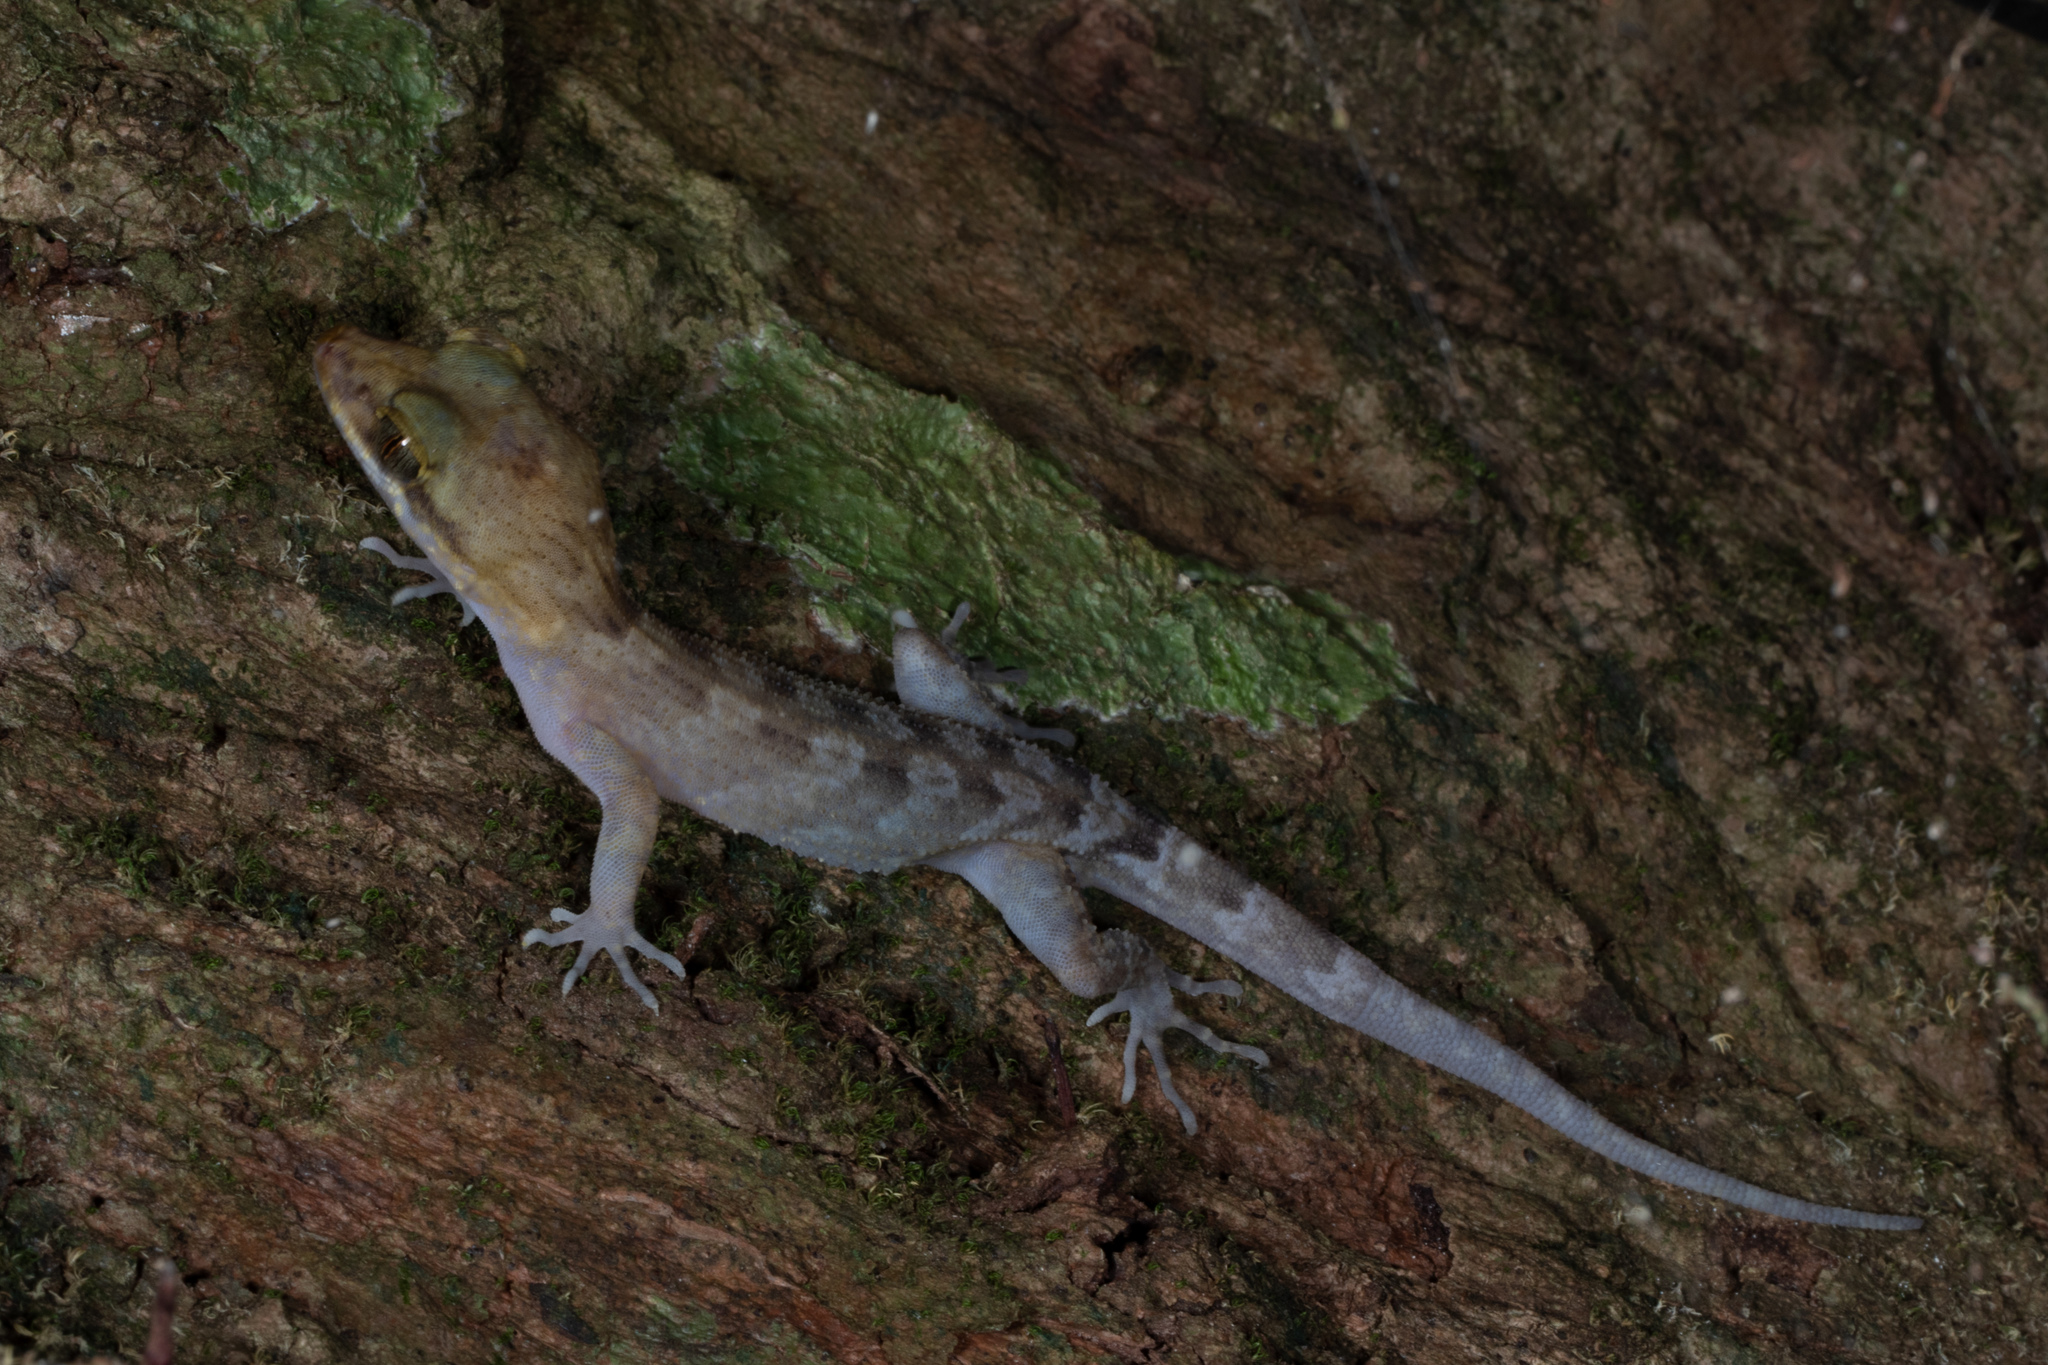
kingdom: Animalia
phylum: Chordata
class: Squamata
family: Gekkonidae
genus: Nactus
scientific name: Nactus pelagicus
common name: Pelagic gecko
